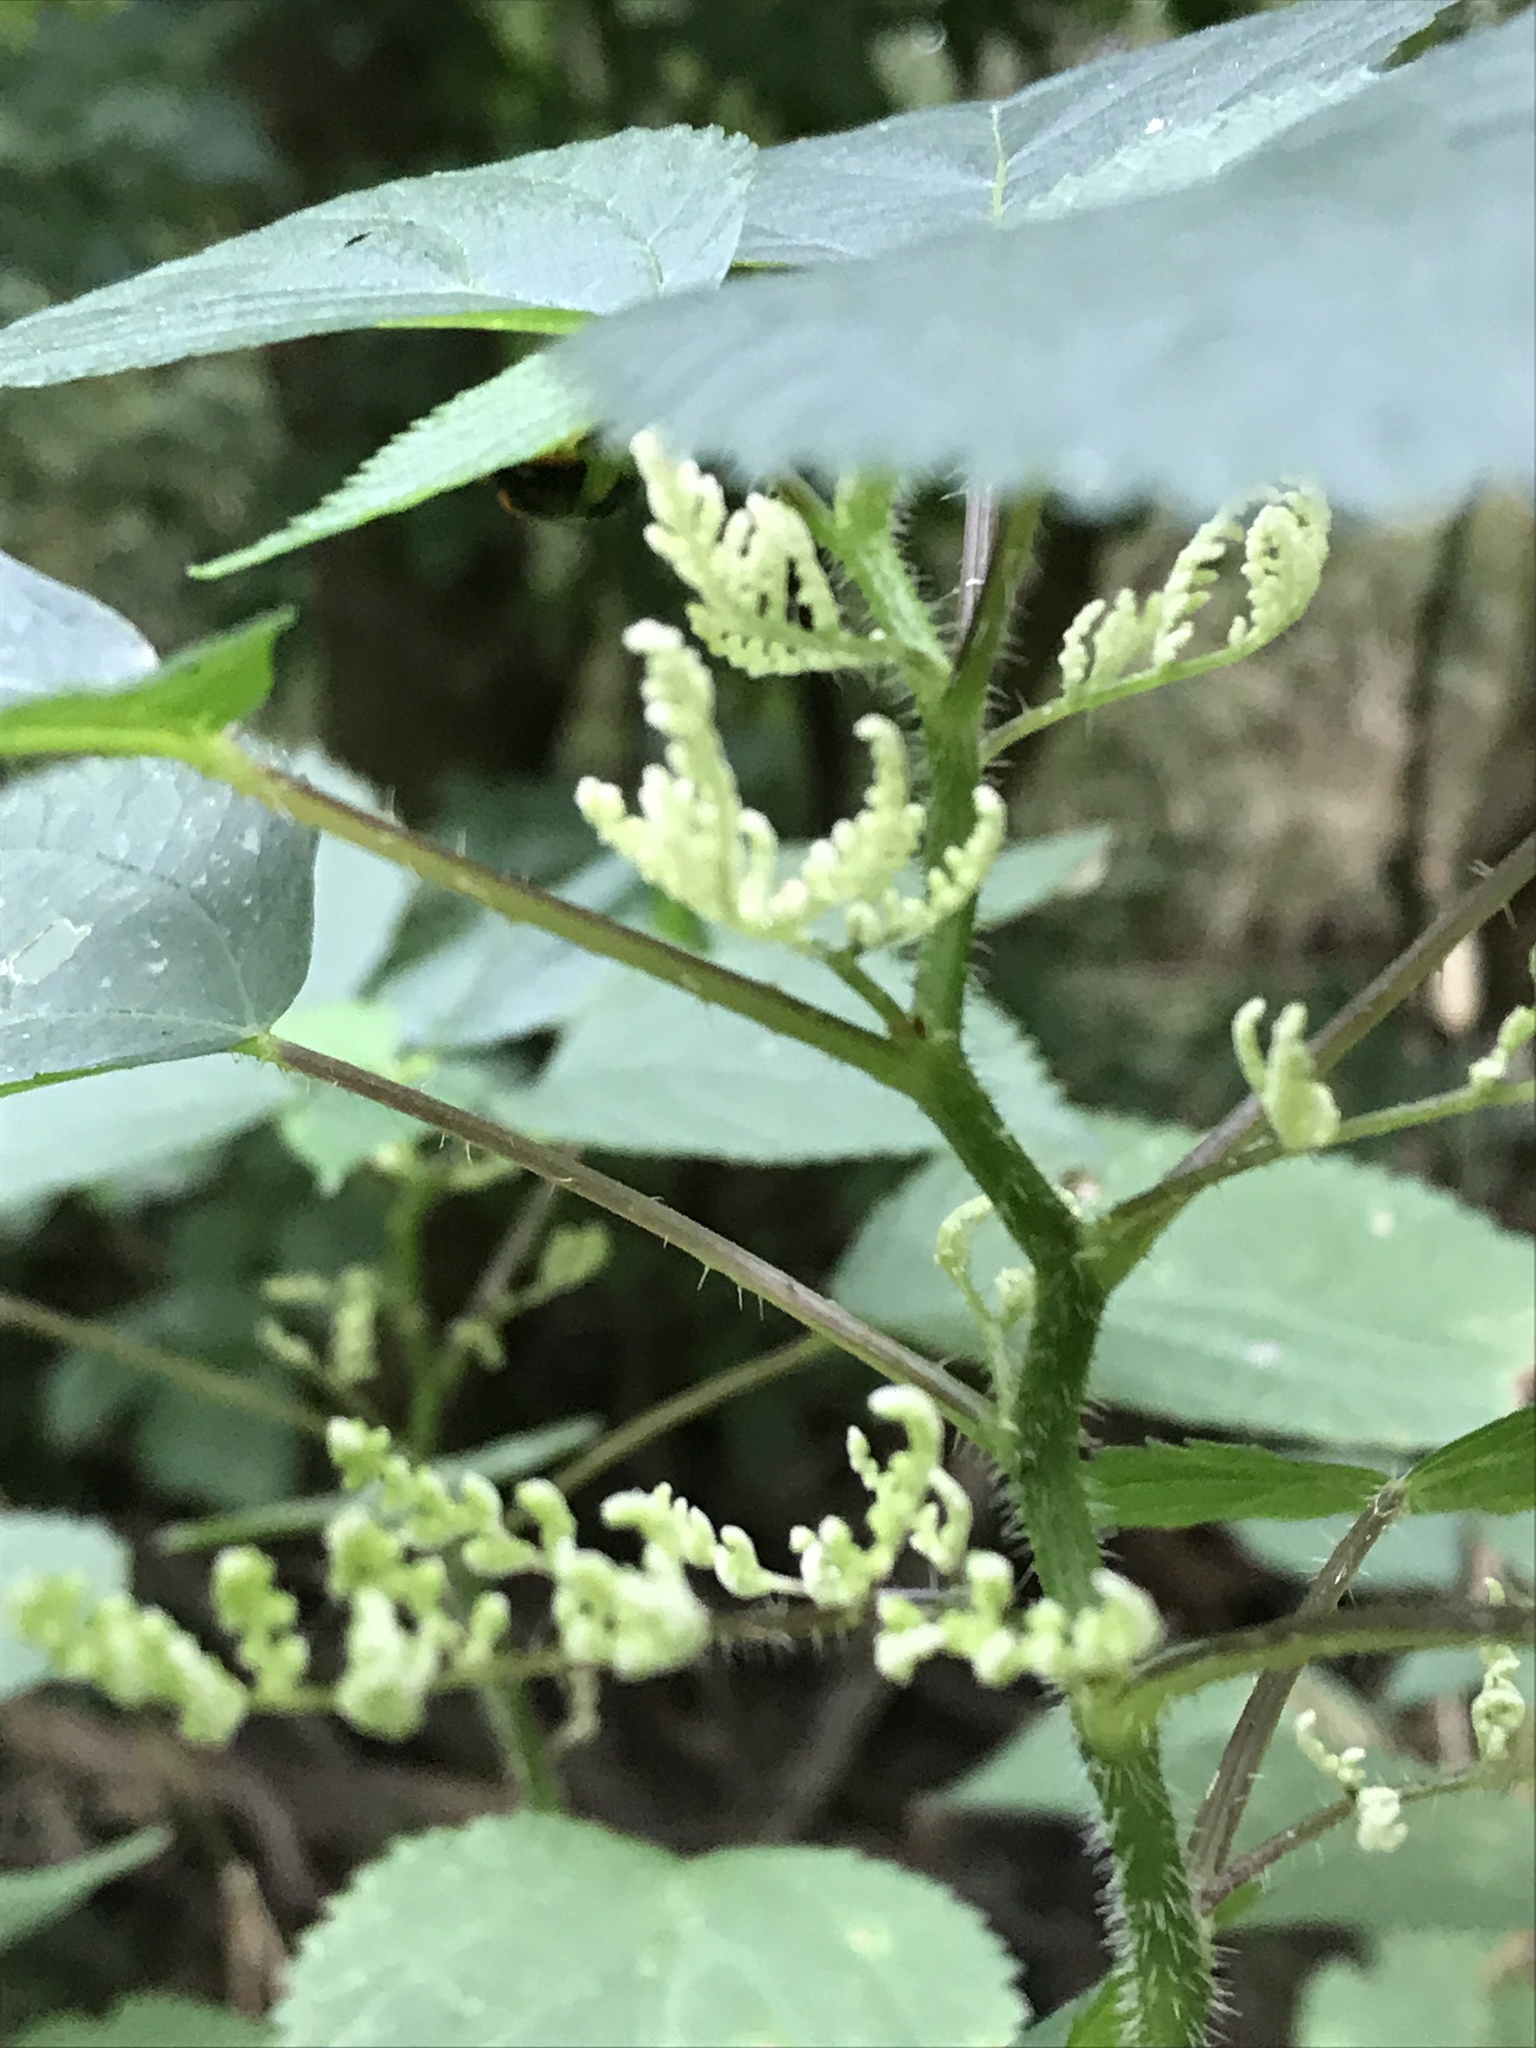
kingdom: Plantae
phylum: Tracheophyta
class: Magnoliopsida
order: Rosales
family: Urticaceae
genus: Laportea
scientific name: Laportea canadensis
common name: Canada nettle
